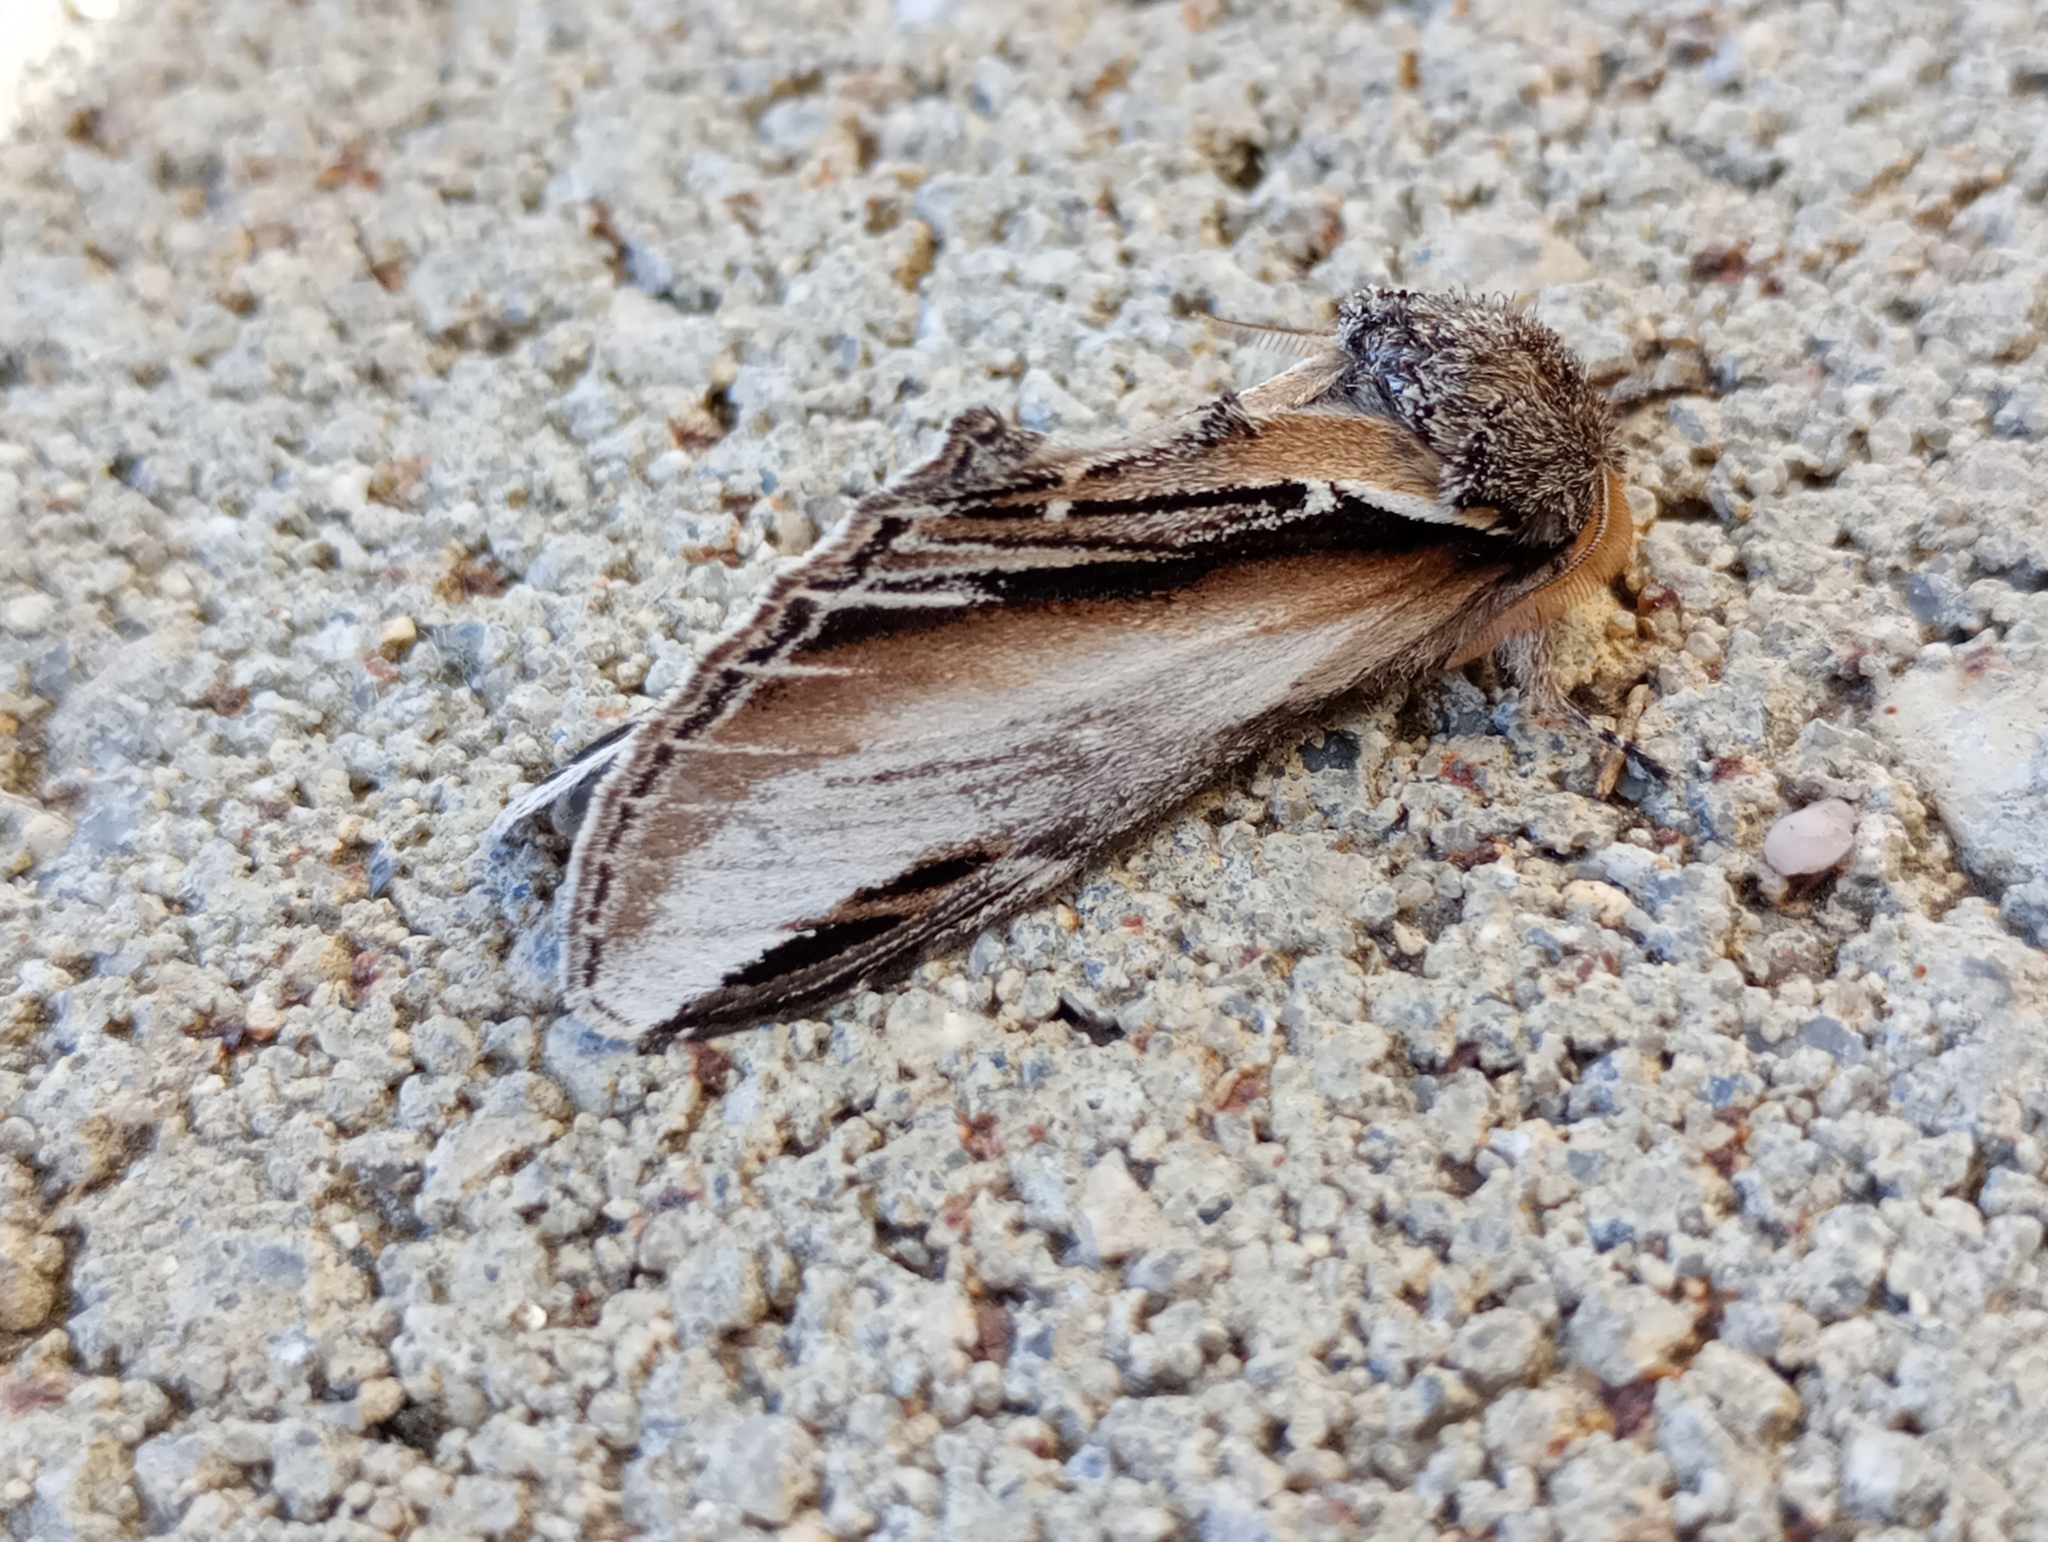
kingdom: Animalia
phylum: Arthropoda
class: Insecta
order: Lepidoptera
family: Notodontidae
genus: Pheosia
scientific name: Pheosia tremula
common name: Swallow prominent
